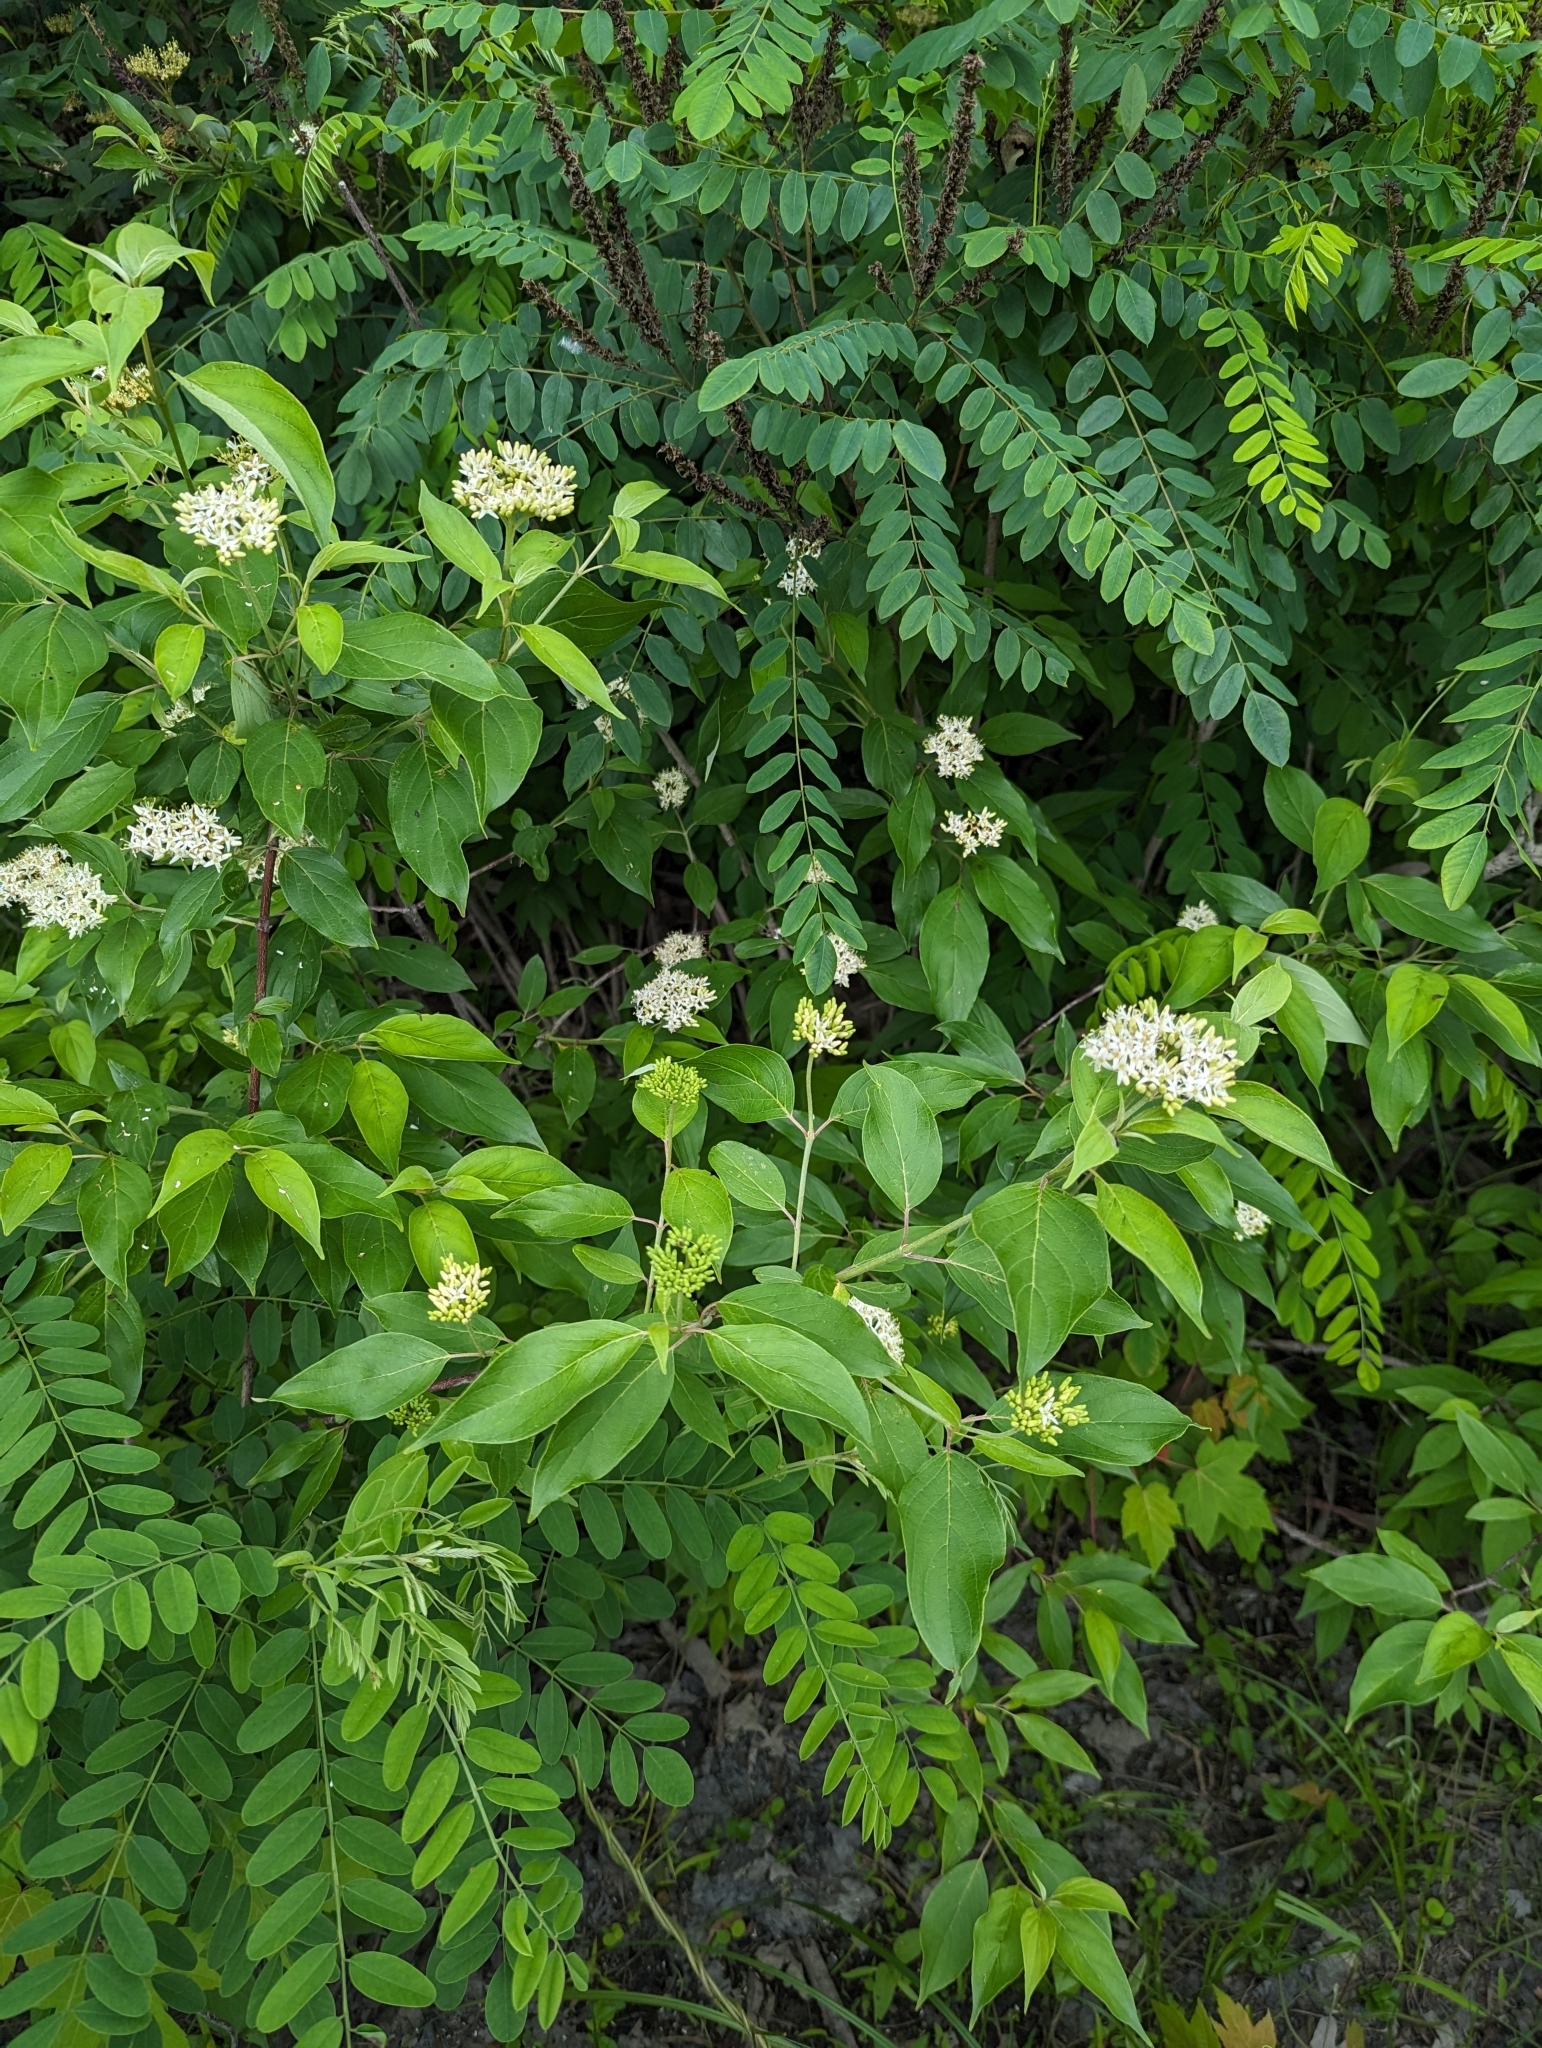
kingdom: Plantae
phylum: Tracheophyta
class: Magnoliopsida
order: Cornales
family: Cornaceae
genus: Cornus
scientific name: Cornus obliqua
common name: Pale dogwood
